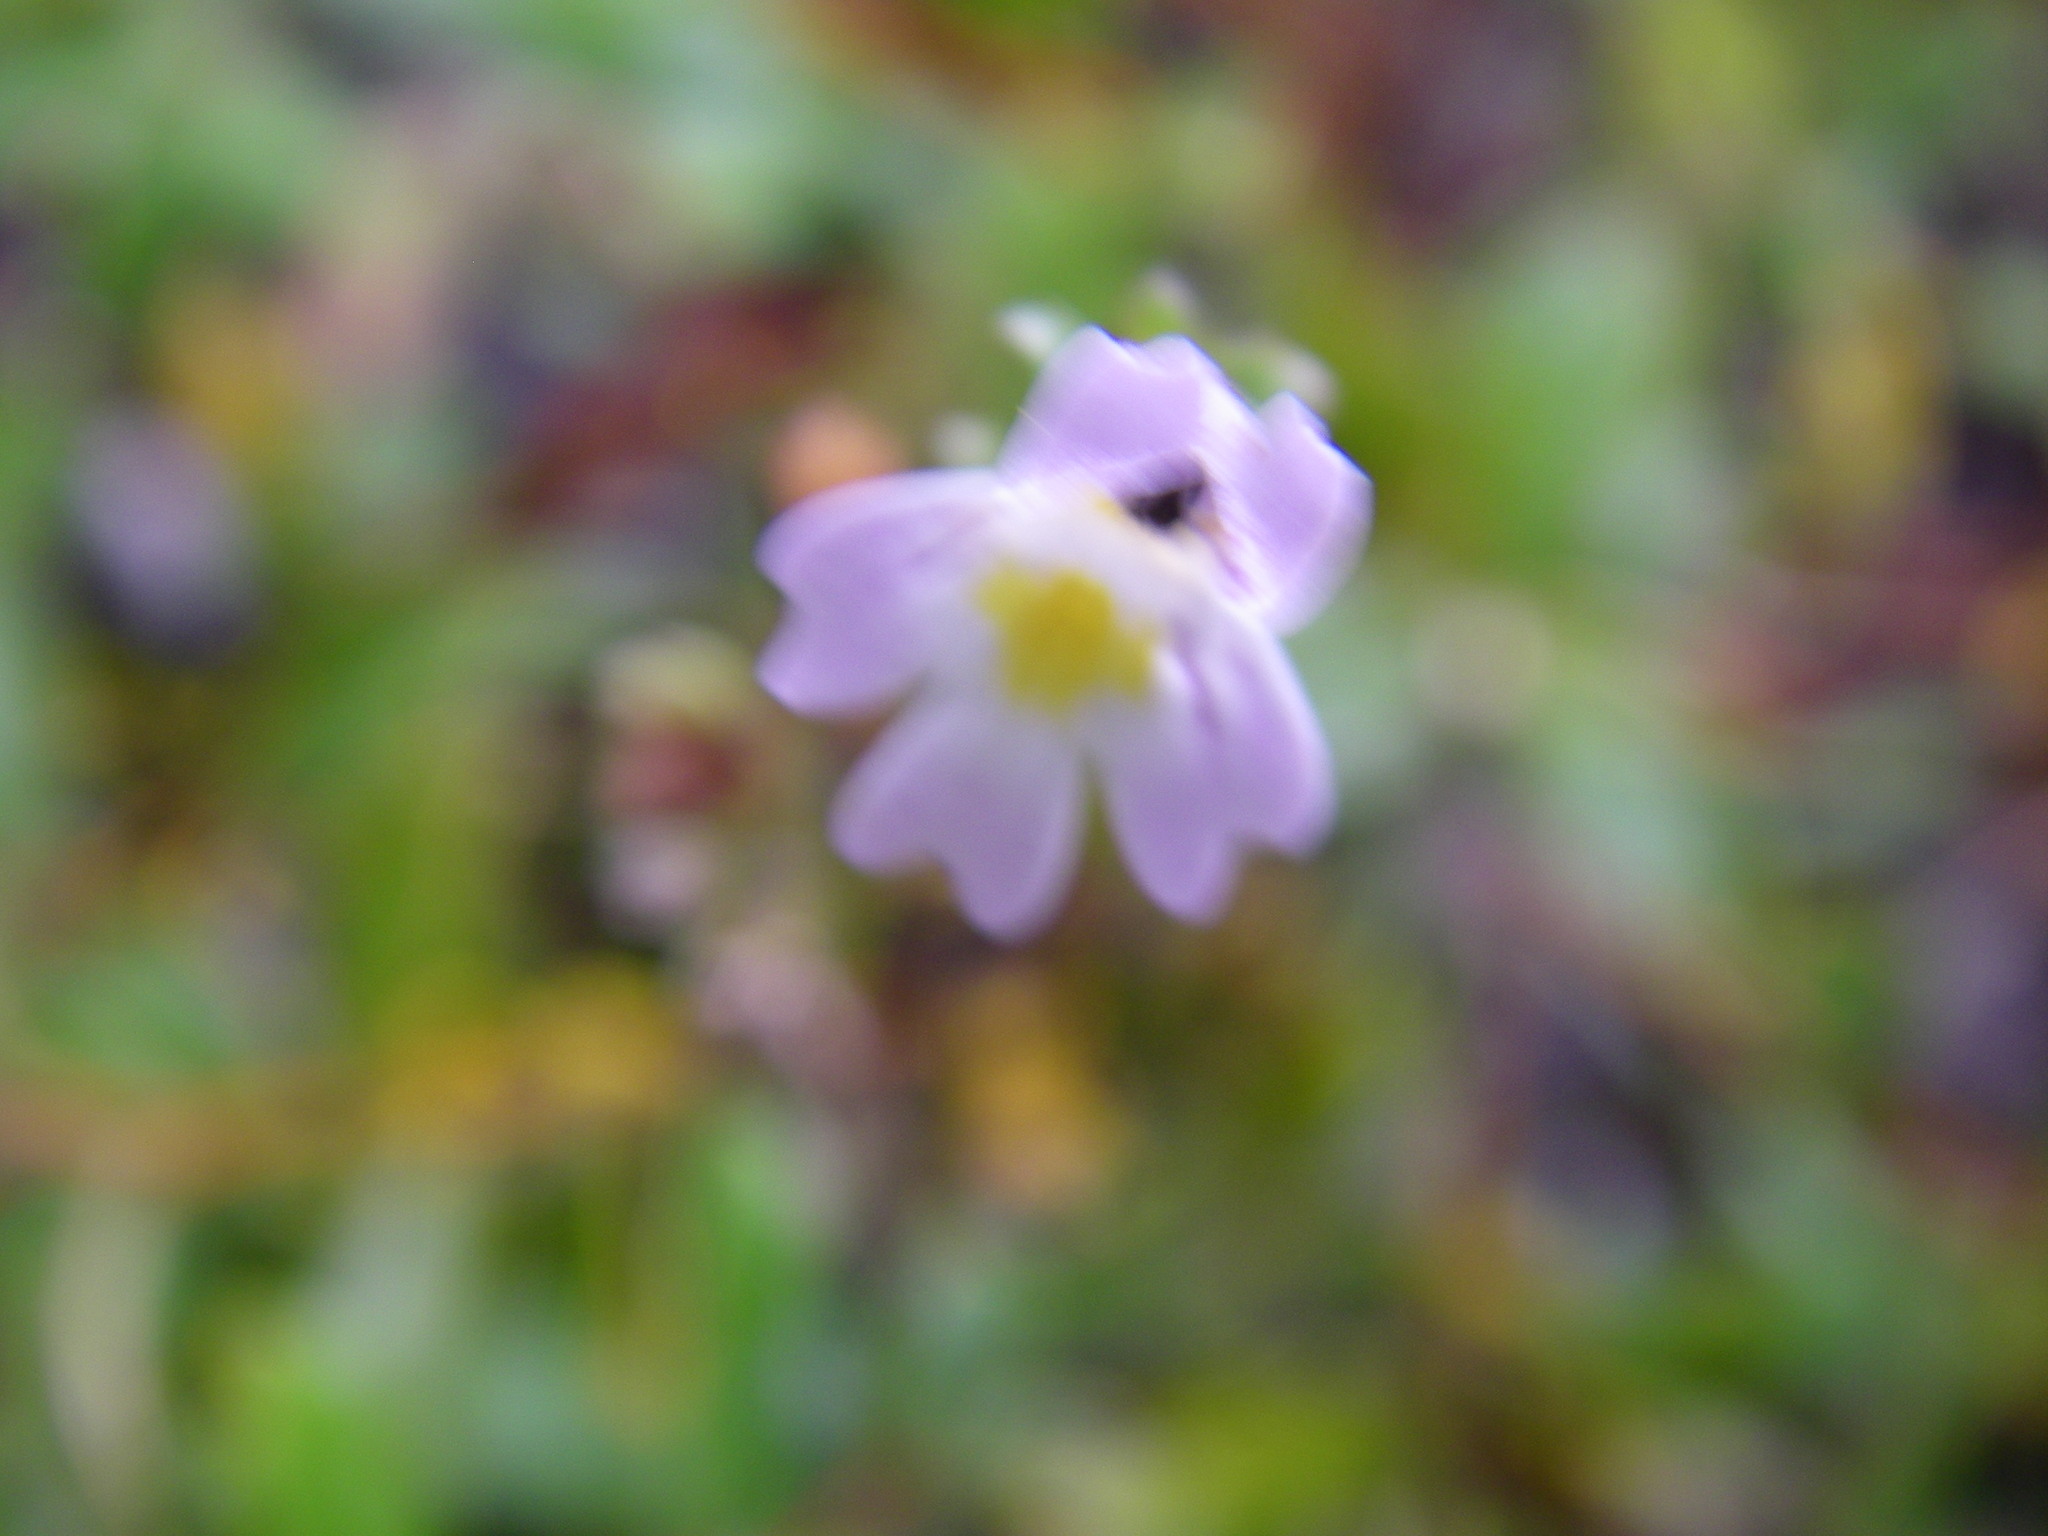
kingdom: Plantae
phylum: Tracheophyta
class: Magnoliopsida
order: Lamiales
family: Orobanchaceae
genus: Euphrasia
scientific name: Euphrasia stricta
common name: Drug eyebright
